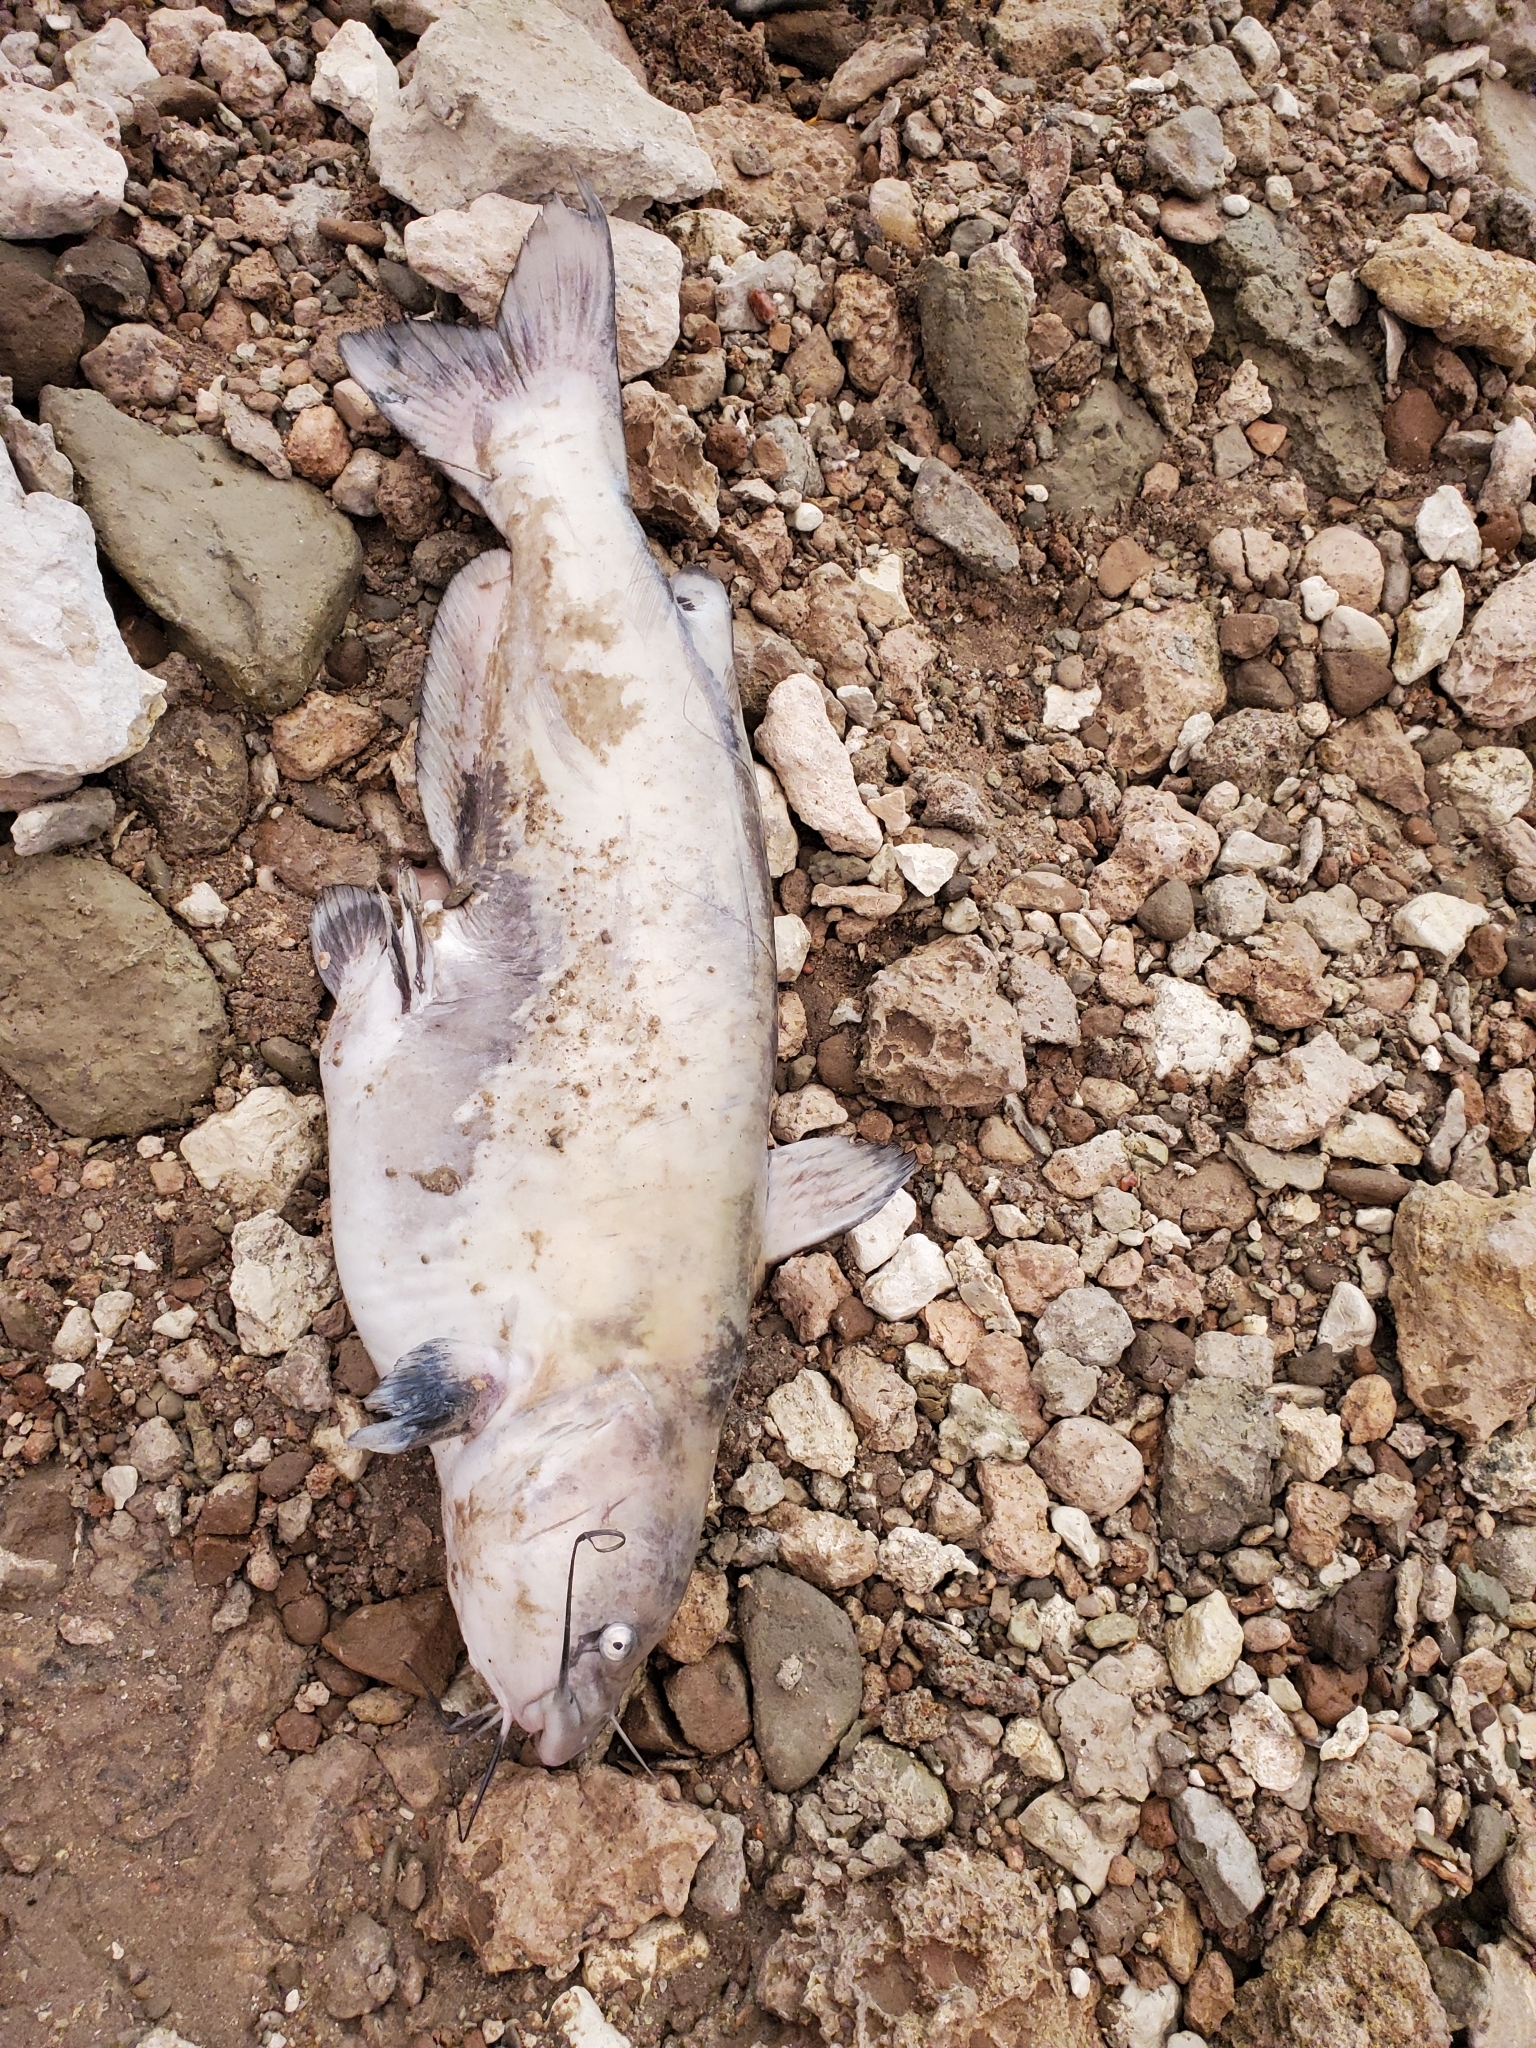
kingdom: Animalia
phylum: Chordata
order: Siluriformes
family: Ictaluridae
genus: Ictalurus
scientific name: Ictalurus punctatus
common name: Channel catfish
